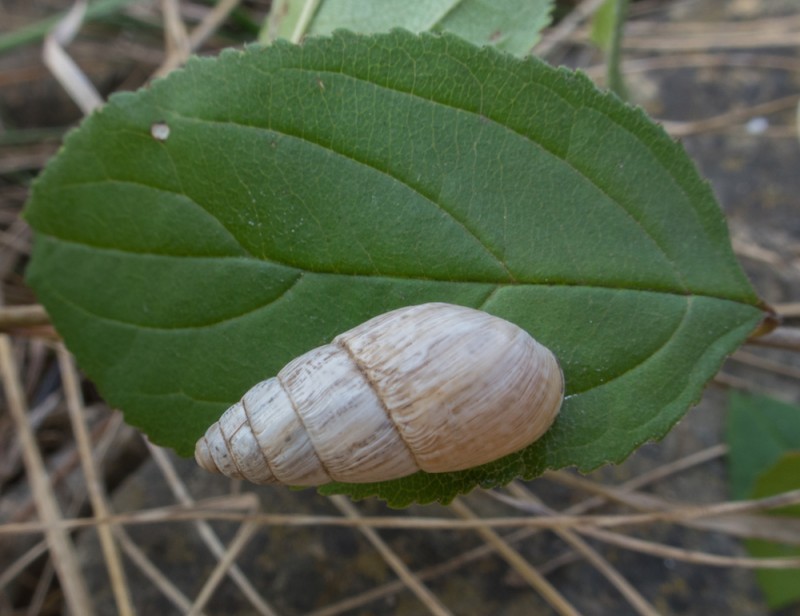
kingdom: Animalia
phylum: Mollusca
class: Gastropoda
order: Stylommatophora
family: Enidae
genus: Zebrina
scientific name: Zebrina detrita
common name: Large bulin
